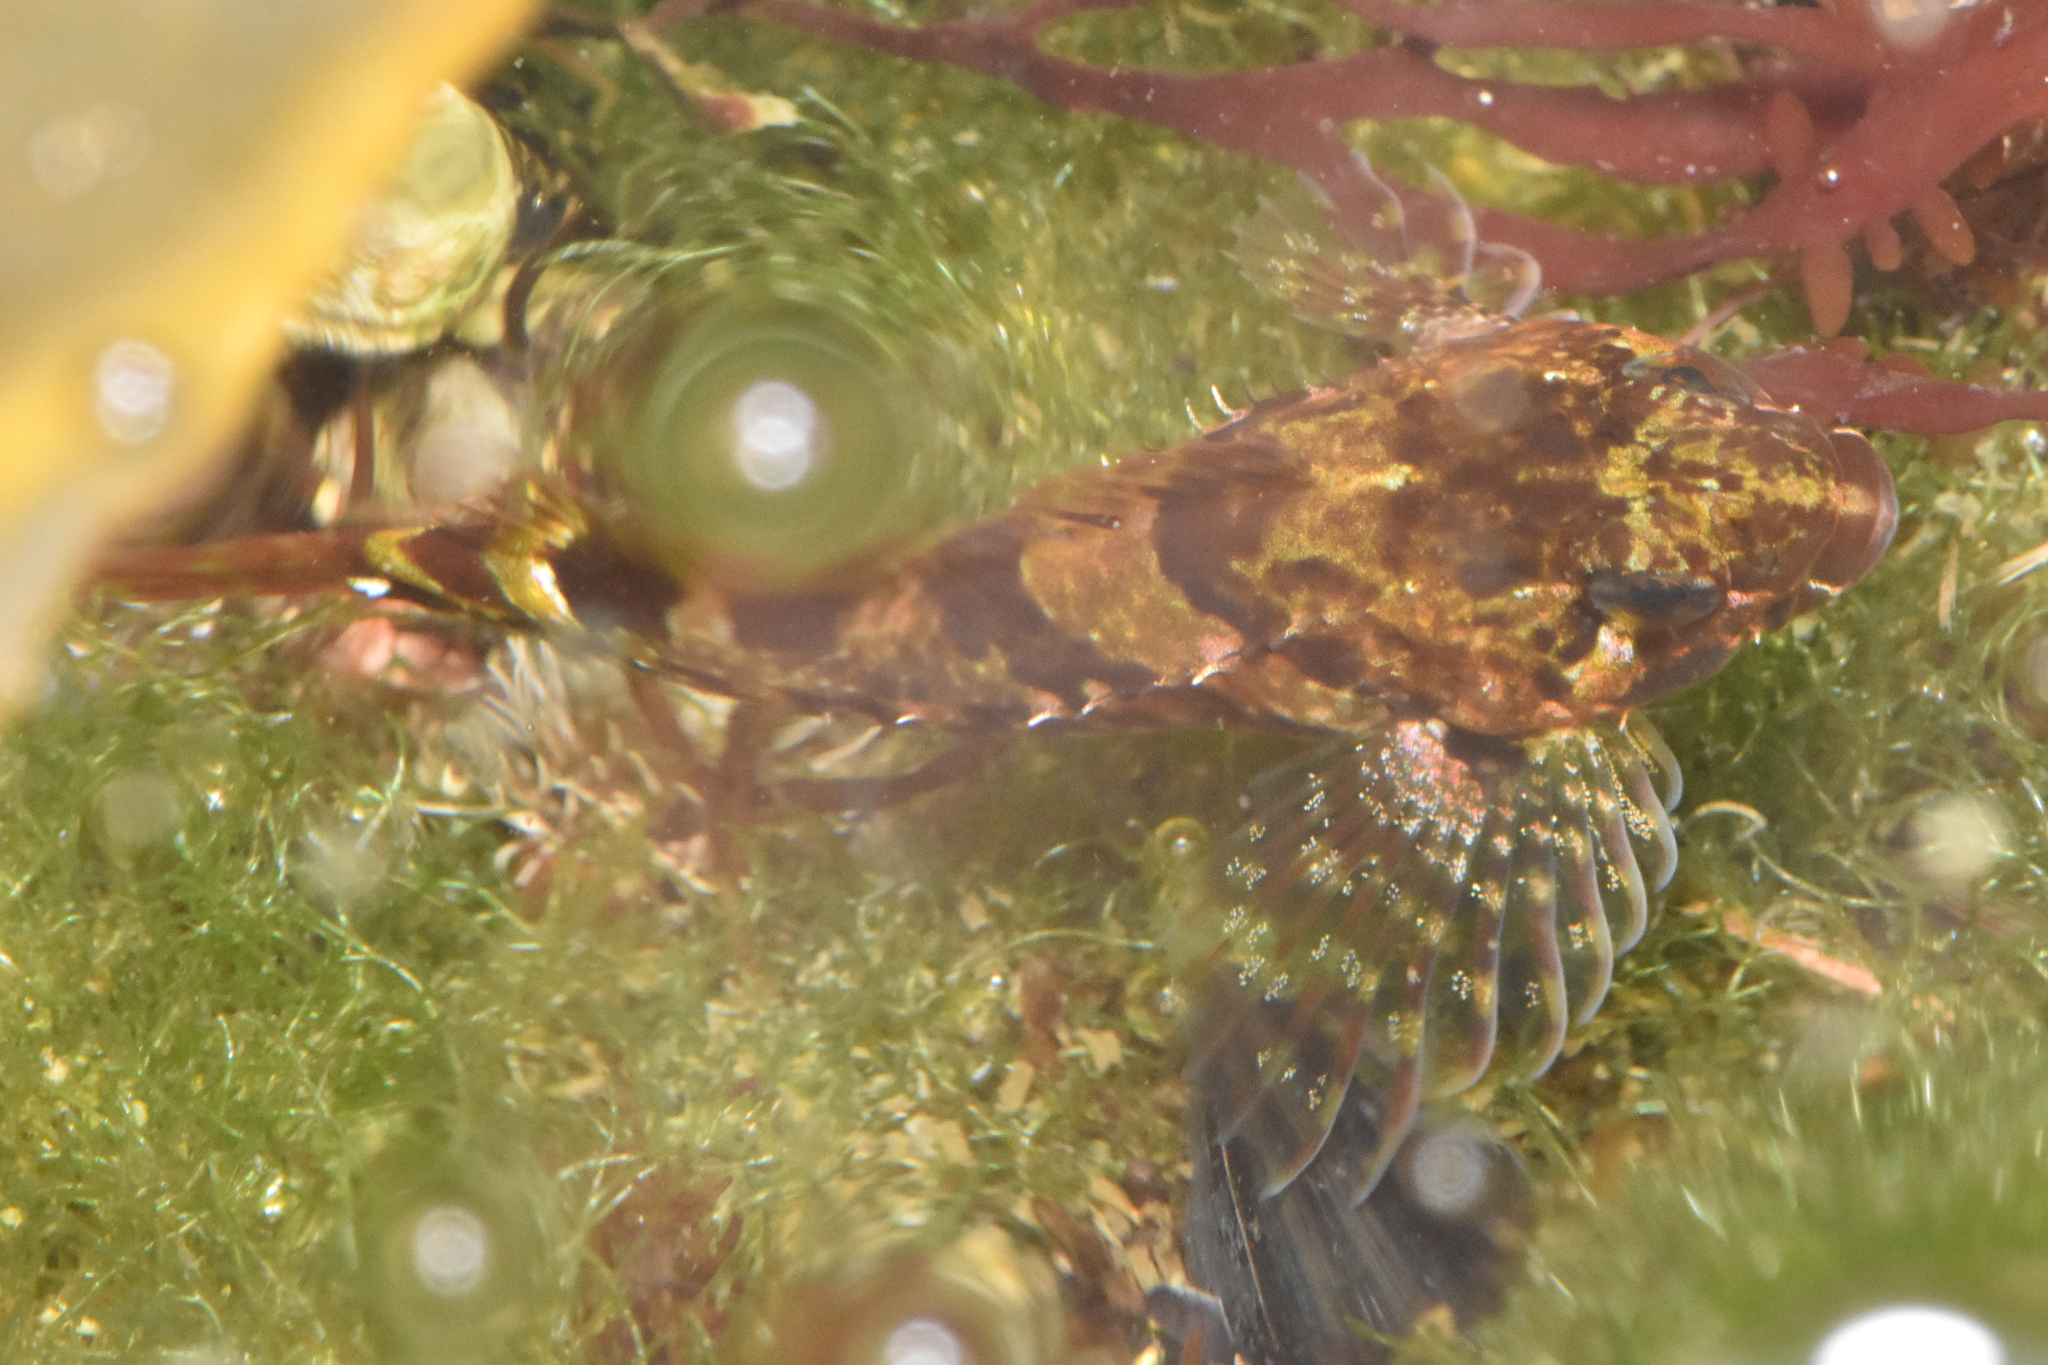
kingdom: Animalia
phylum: Chordata
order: Scorpaeniformes
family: Cottidae
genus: Oligocottus
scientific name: Oligocottus maculosus
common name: Tidepool sculpin
